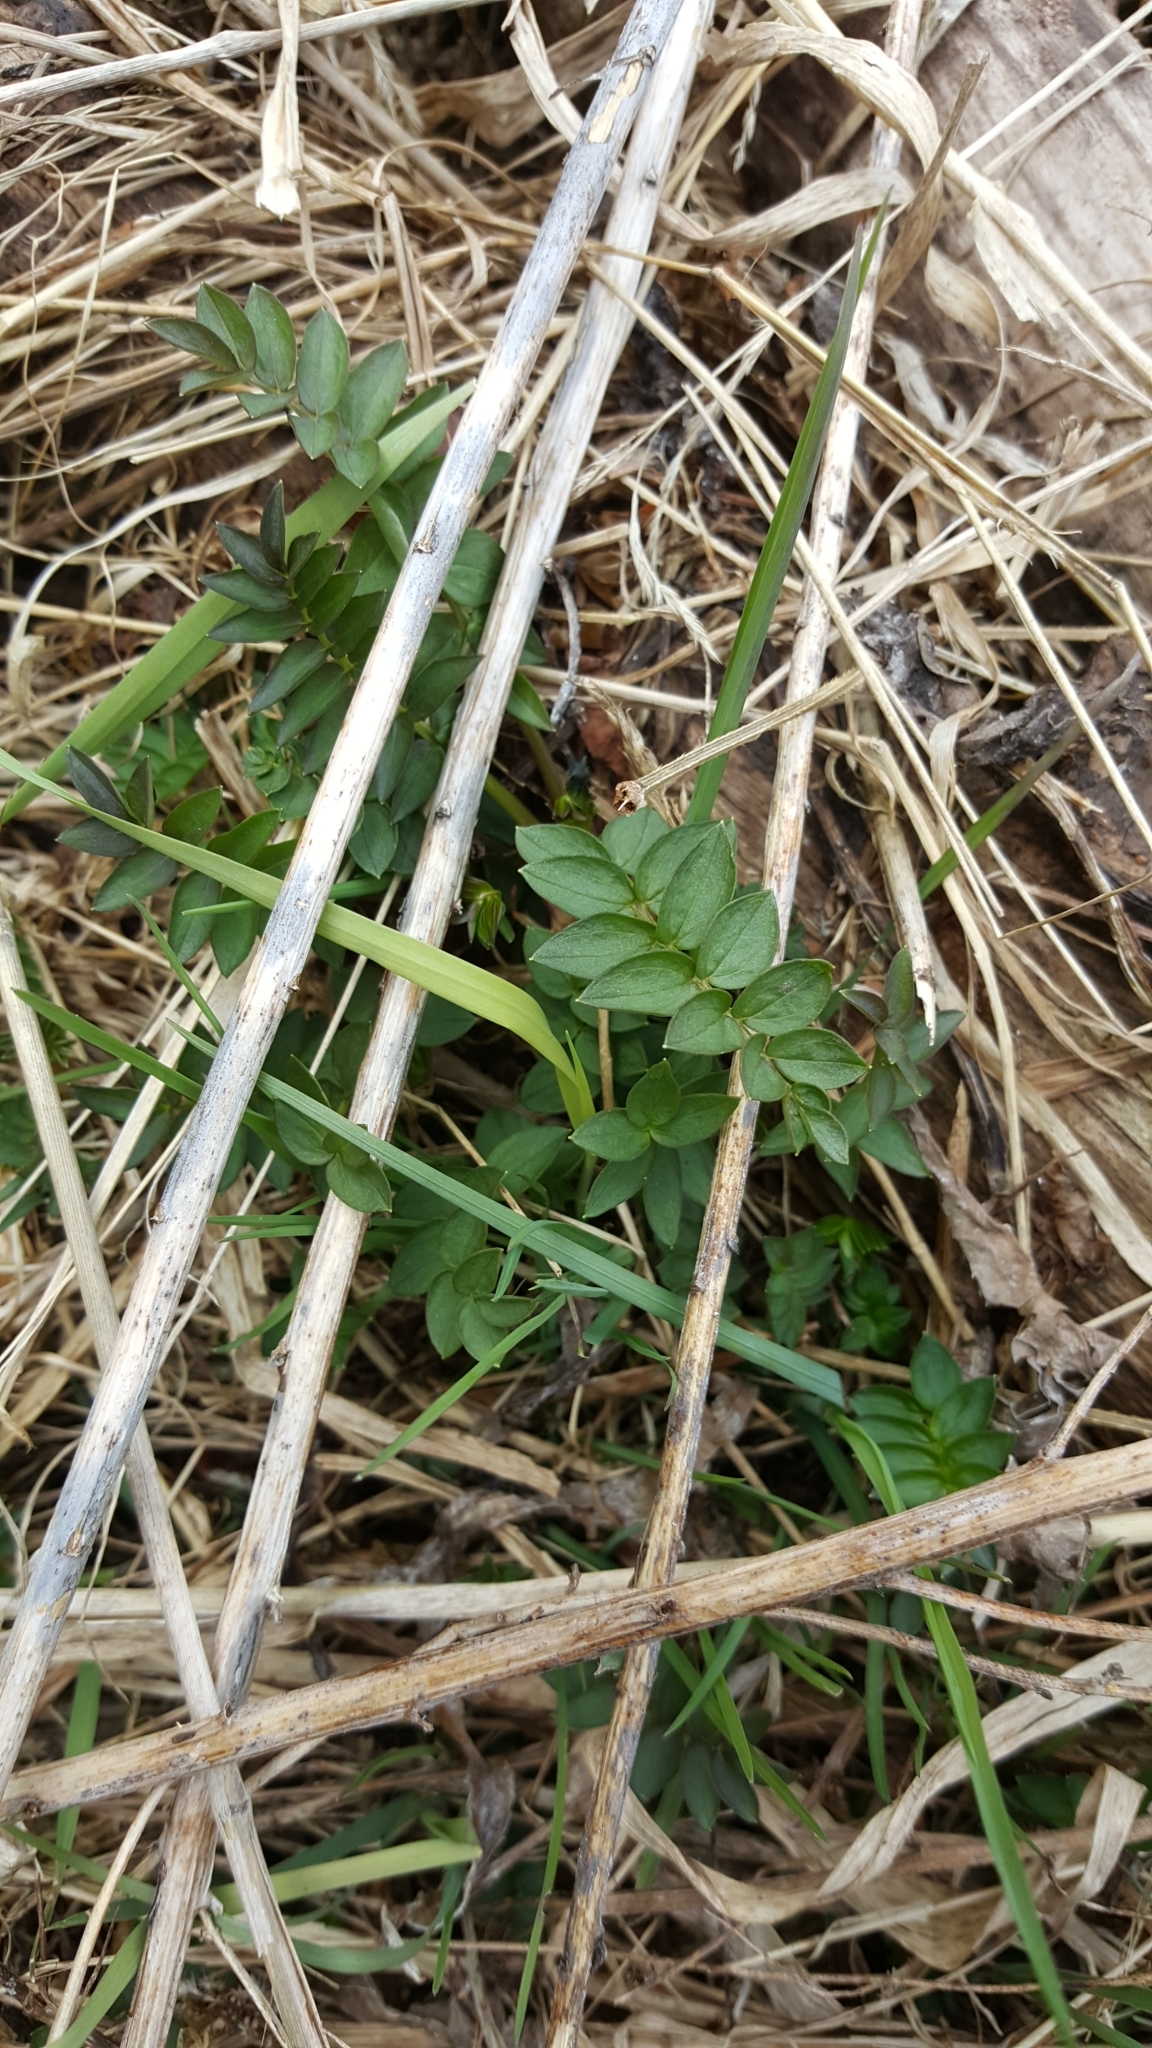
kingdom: Plantae
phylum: Tracheophyta
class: Magnoliopsida
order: Ericales
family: Polemoniaceae
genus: Polemonium
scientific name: Polemonium vanbruntiae
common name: Bog jacob's-ladder
